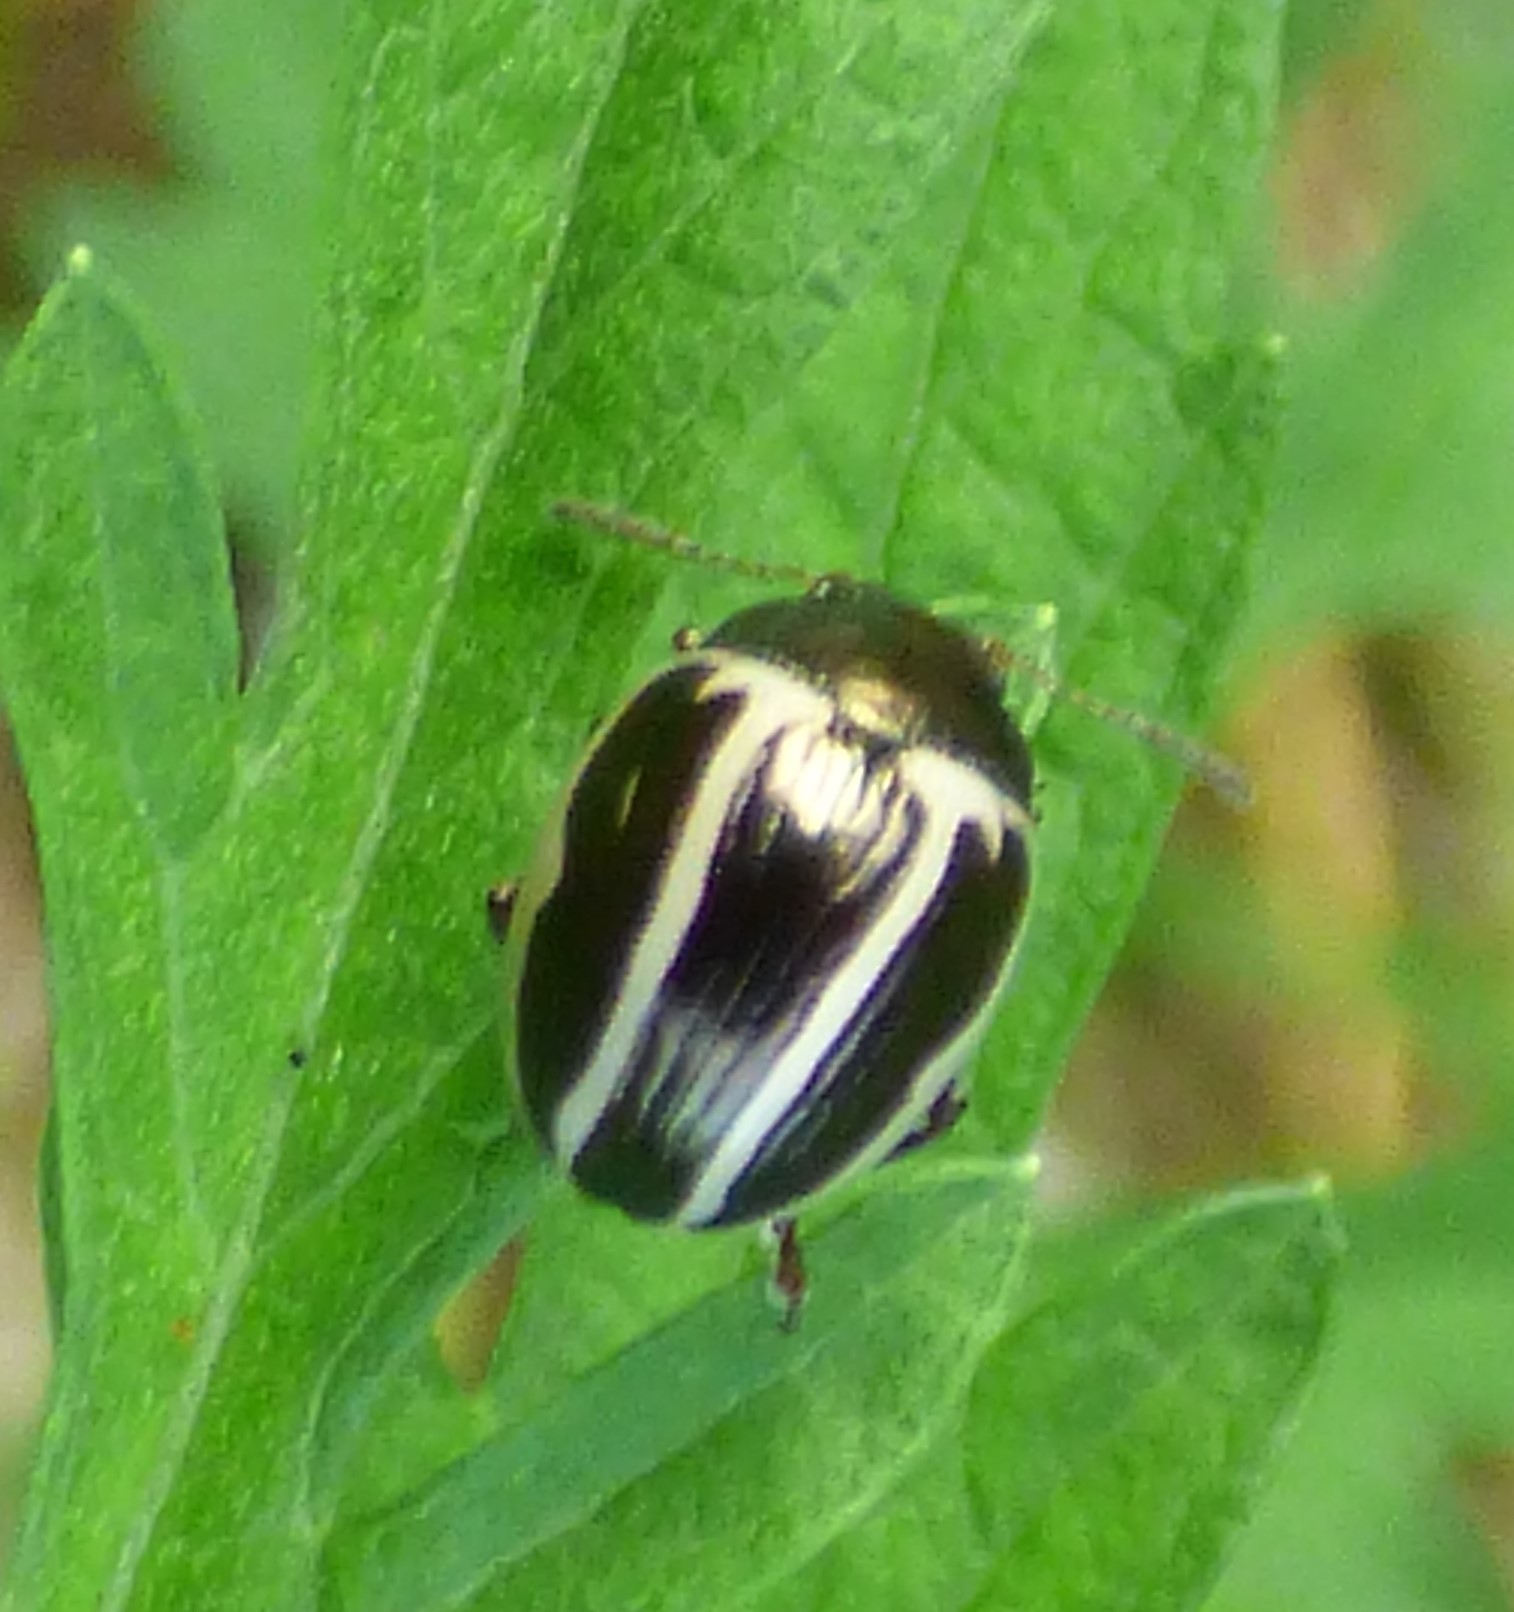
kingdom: Animalia
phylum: Arthropoda
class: Insecta
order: Coleoptera
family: Chrysomelidae
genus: Calligrapha
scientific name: Calligrapha bidenticola
